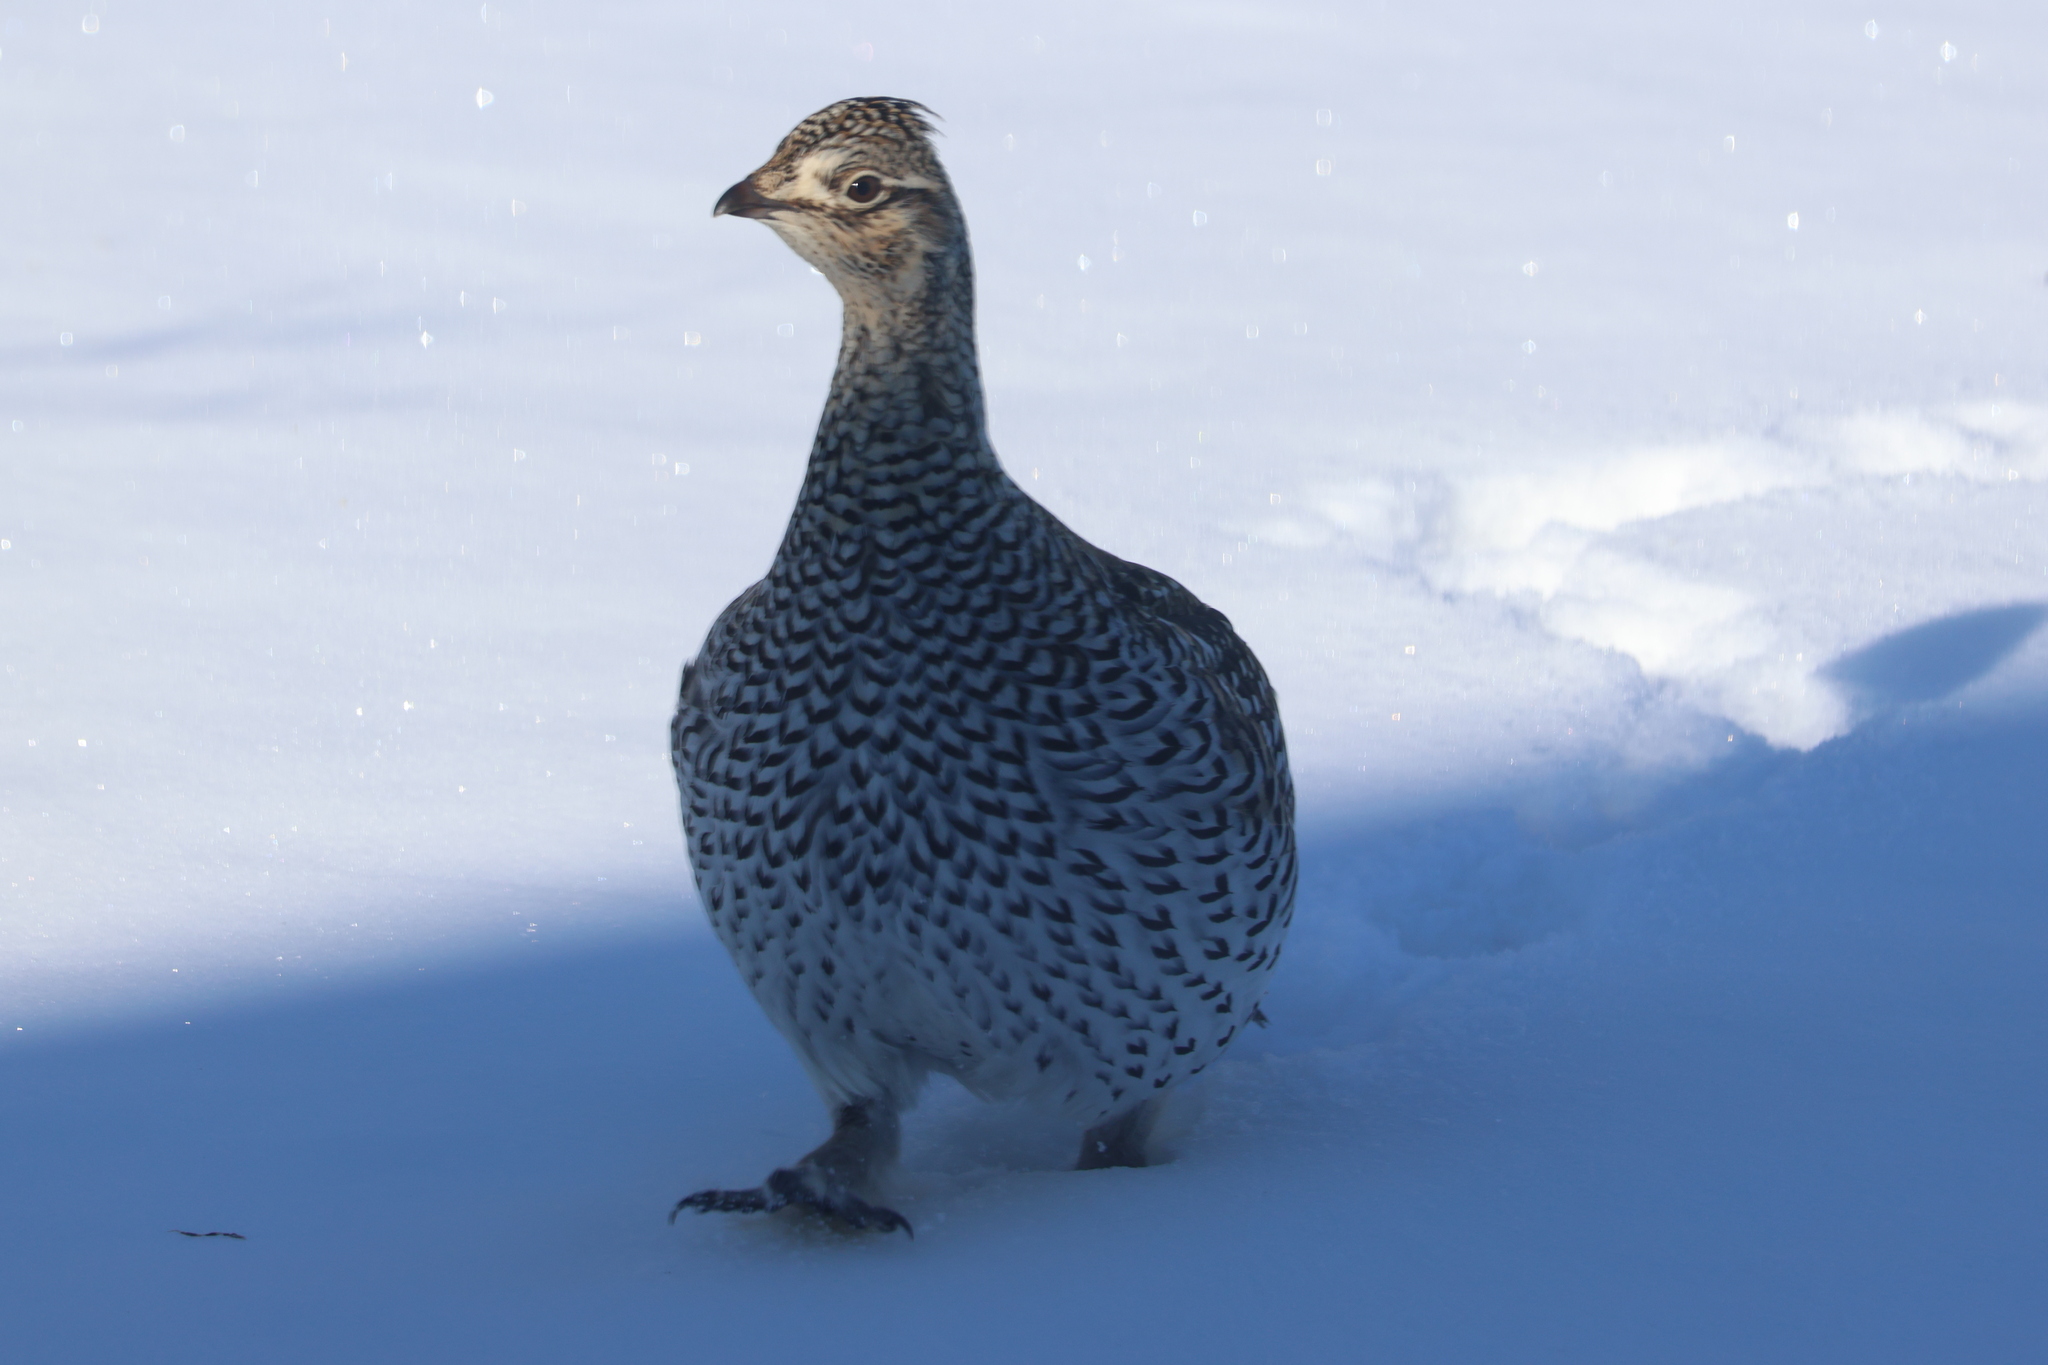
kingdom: Animalia
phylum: Chordata
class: Aves
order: Galliformes
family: Phasianidae
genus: Tympanuchus
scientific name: Tympanuchus phasianellus
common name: Sharp-tailed grouse
